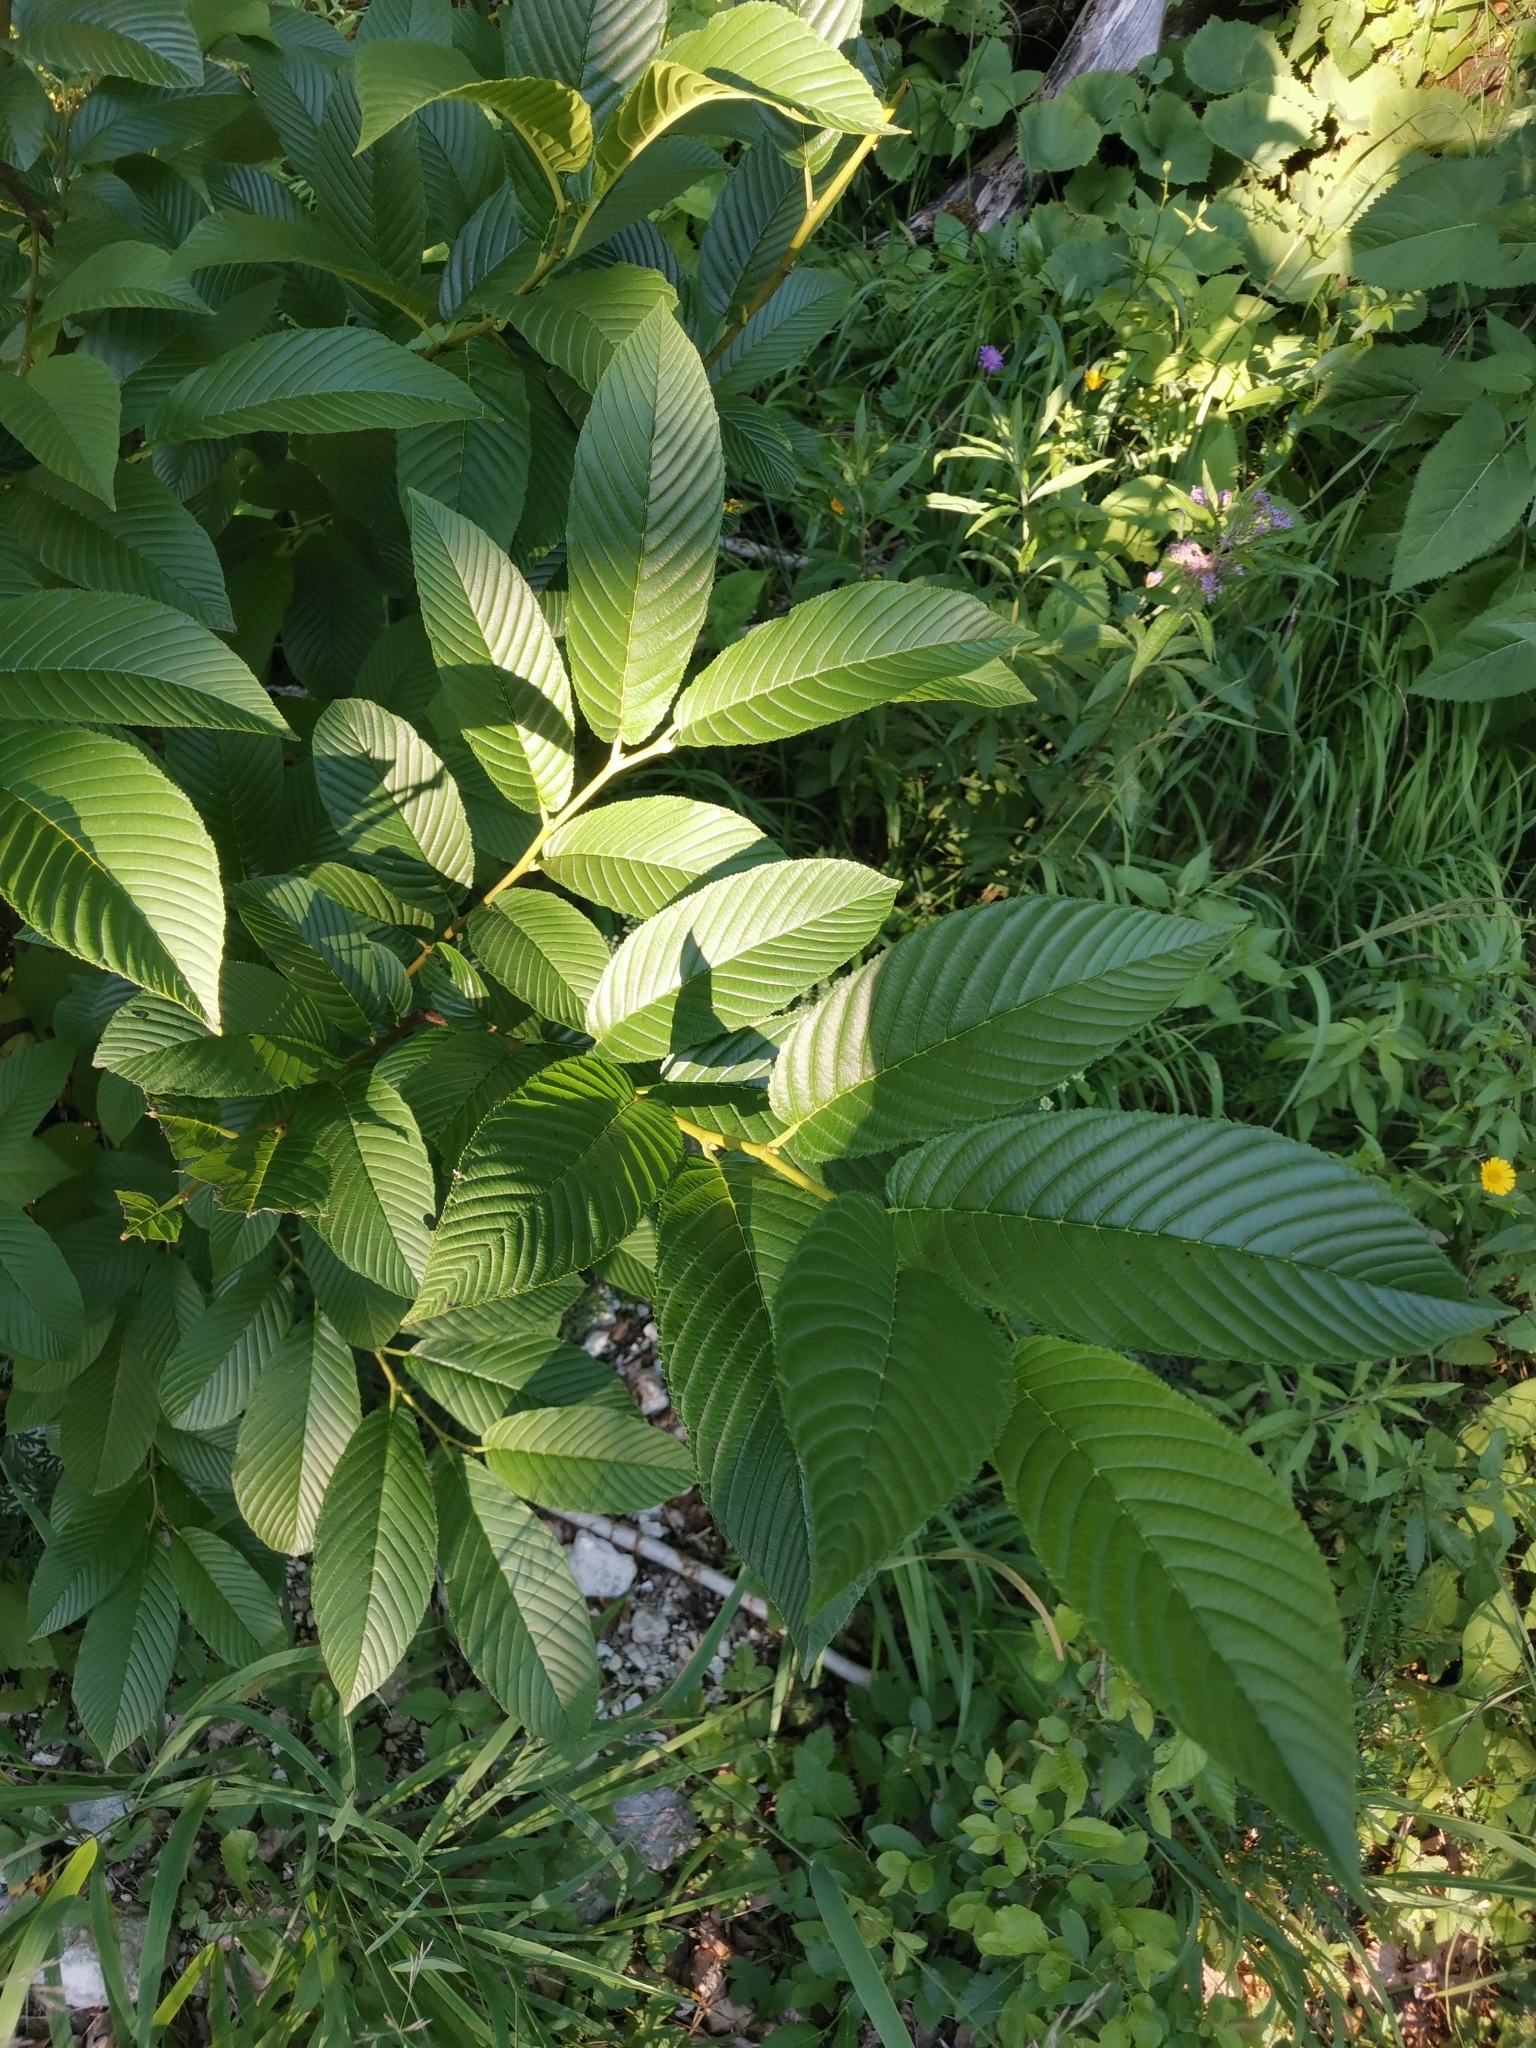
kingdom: Plantae
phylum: Tracheophyta
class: Magnoliopsida
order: Rosales
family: Rhamnaceae
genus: Atadinus
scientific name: Atadinus fallax
